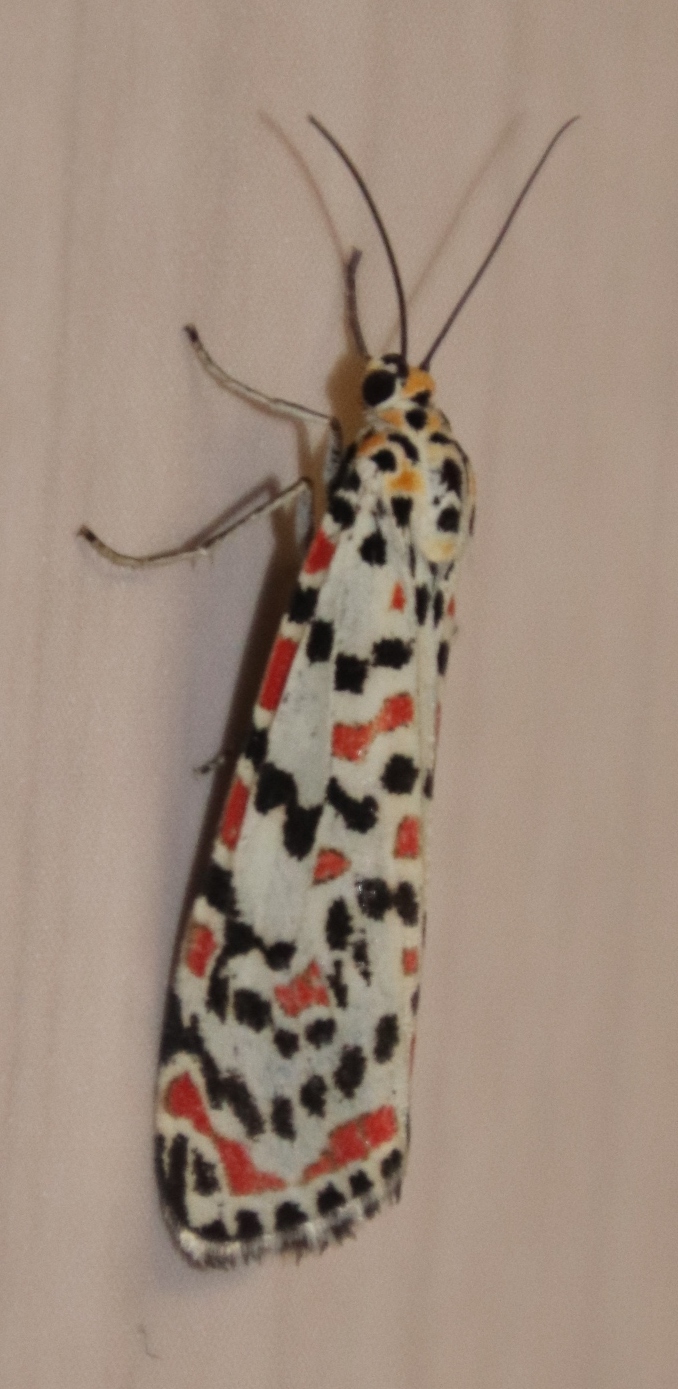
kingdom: Animalia
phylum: Arthropoda
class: Insecta
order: Lepidoptera
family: Erebidae
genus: Utetheisa
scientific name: Utetheisa pulchella
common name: Crimson speckled
